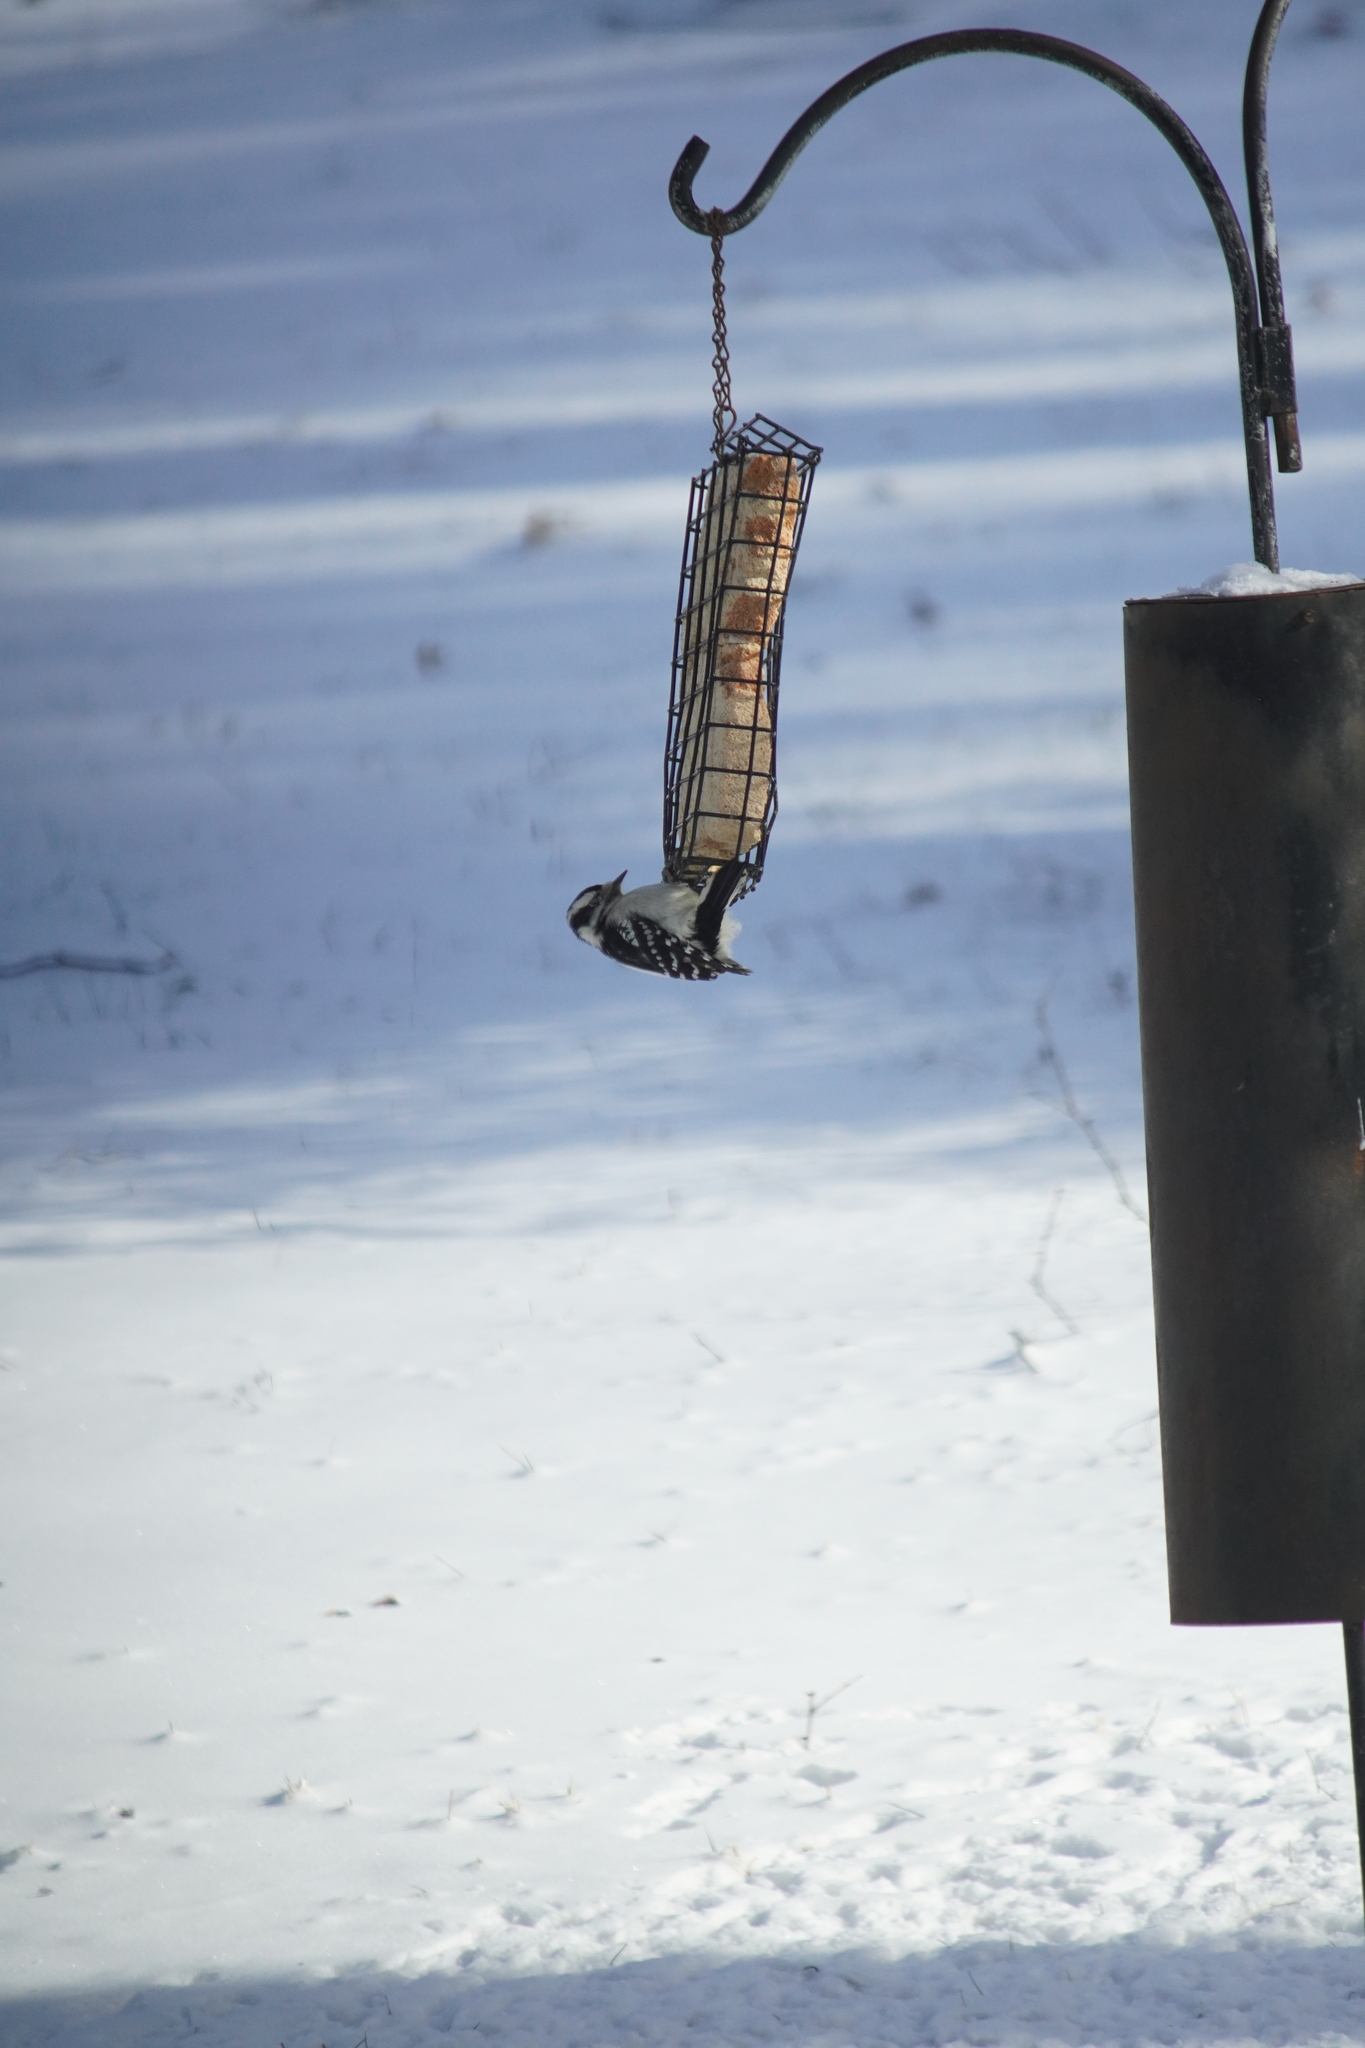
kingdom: Animalia
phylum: Chordata
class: Aves
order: Piciformes
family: Picidae
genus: Dryobates
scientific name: Dryobates pubescens
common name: Downy woodpecker
